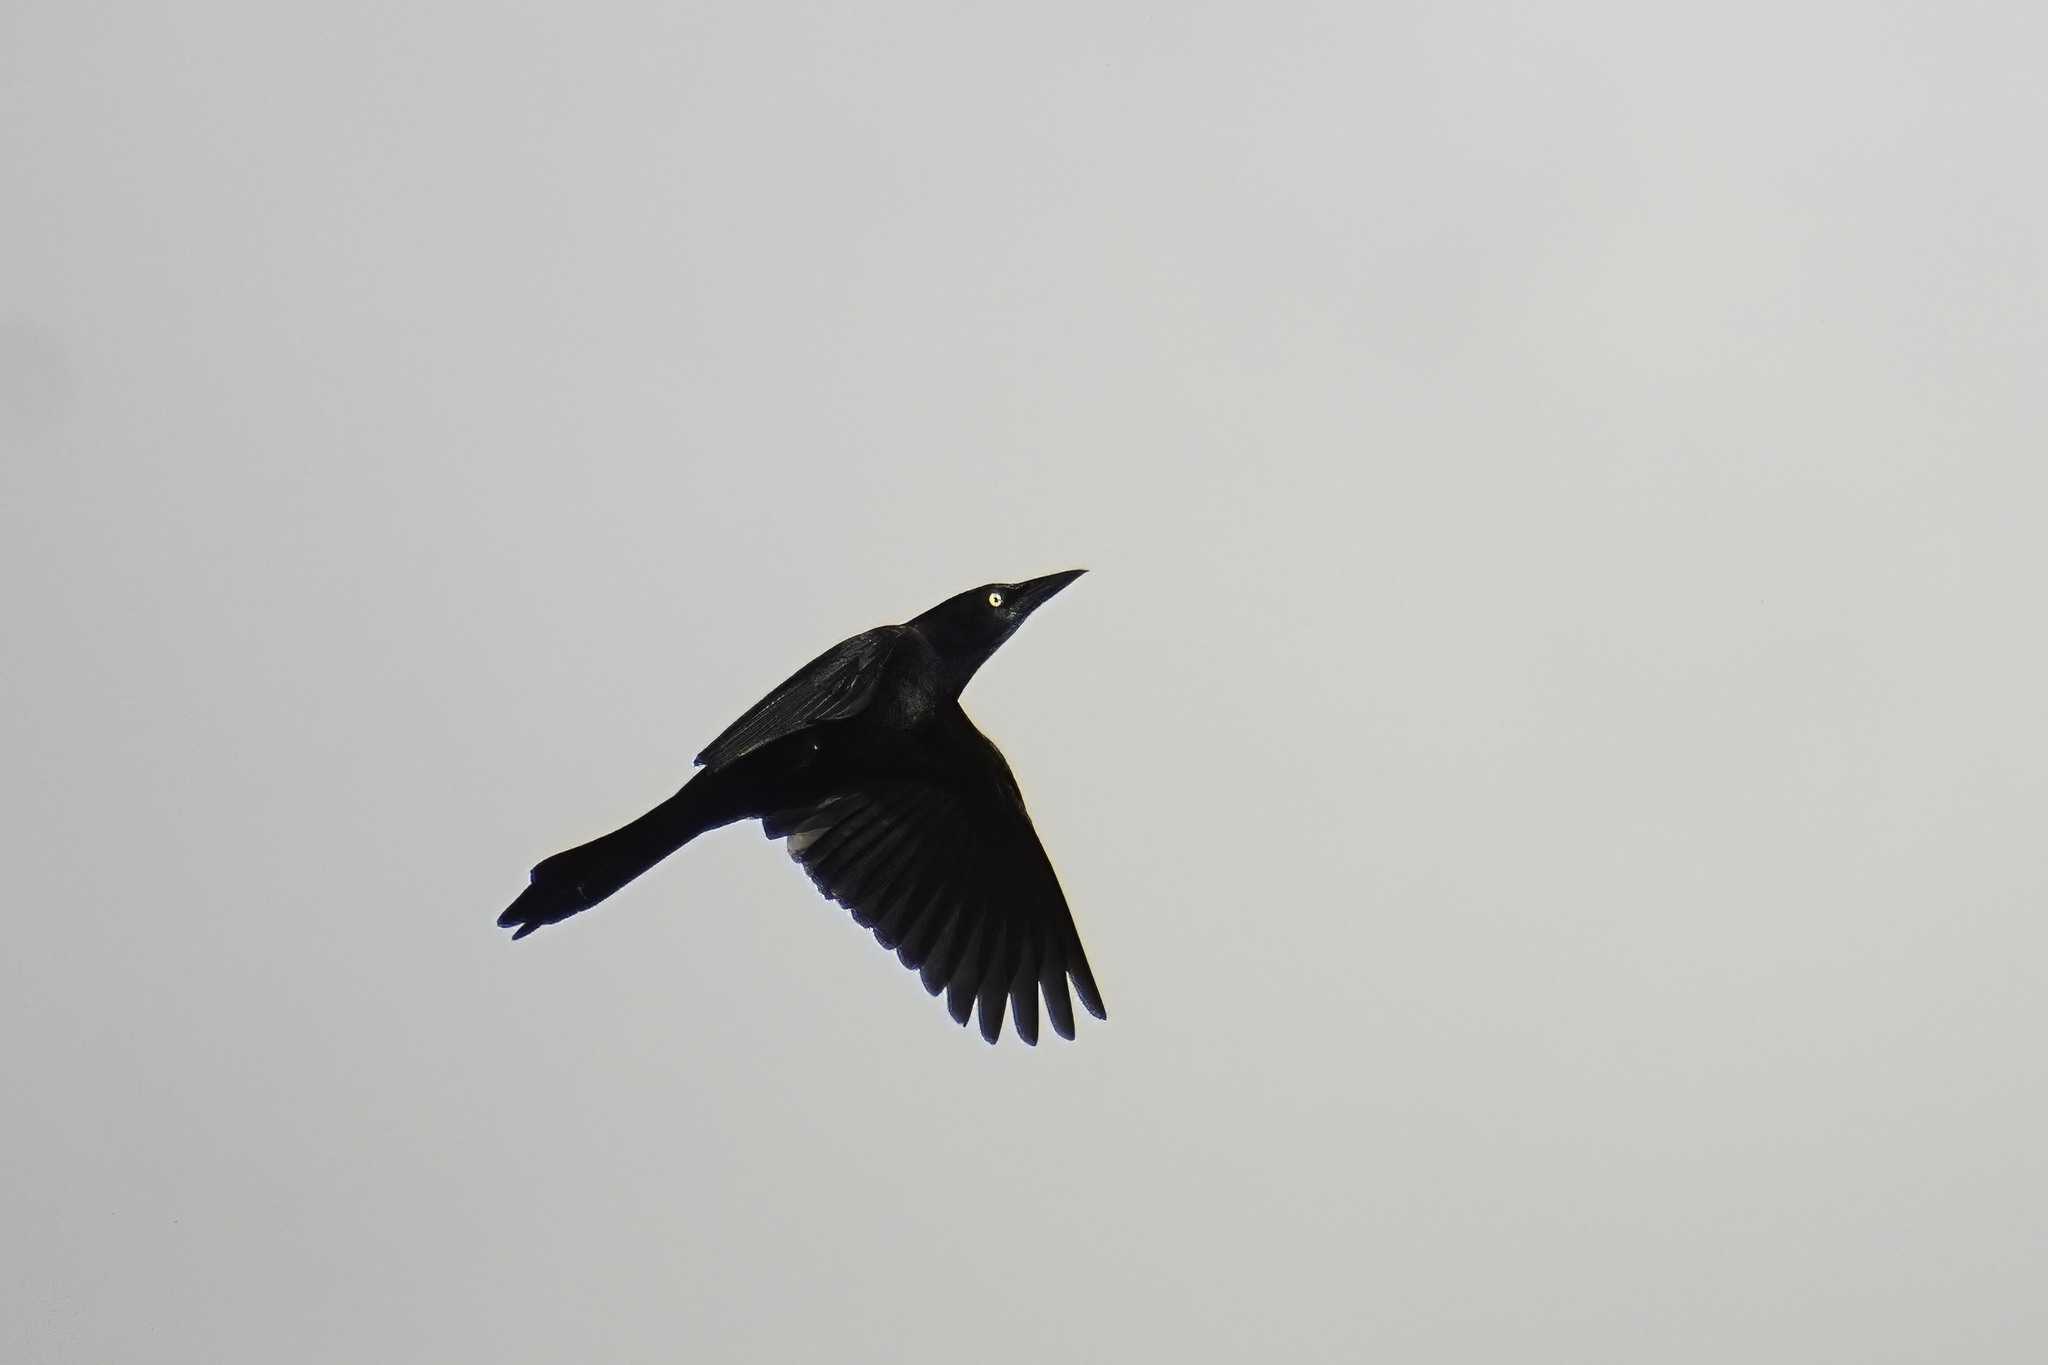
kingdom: Animalia
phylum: Chordata
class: Aves
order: Passeriformes
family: Icteridae
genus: Quiscalus
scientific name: Quiscalus quiscula
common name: Common grackle
